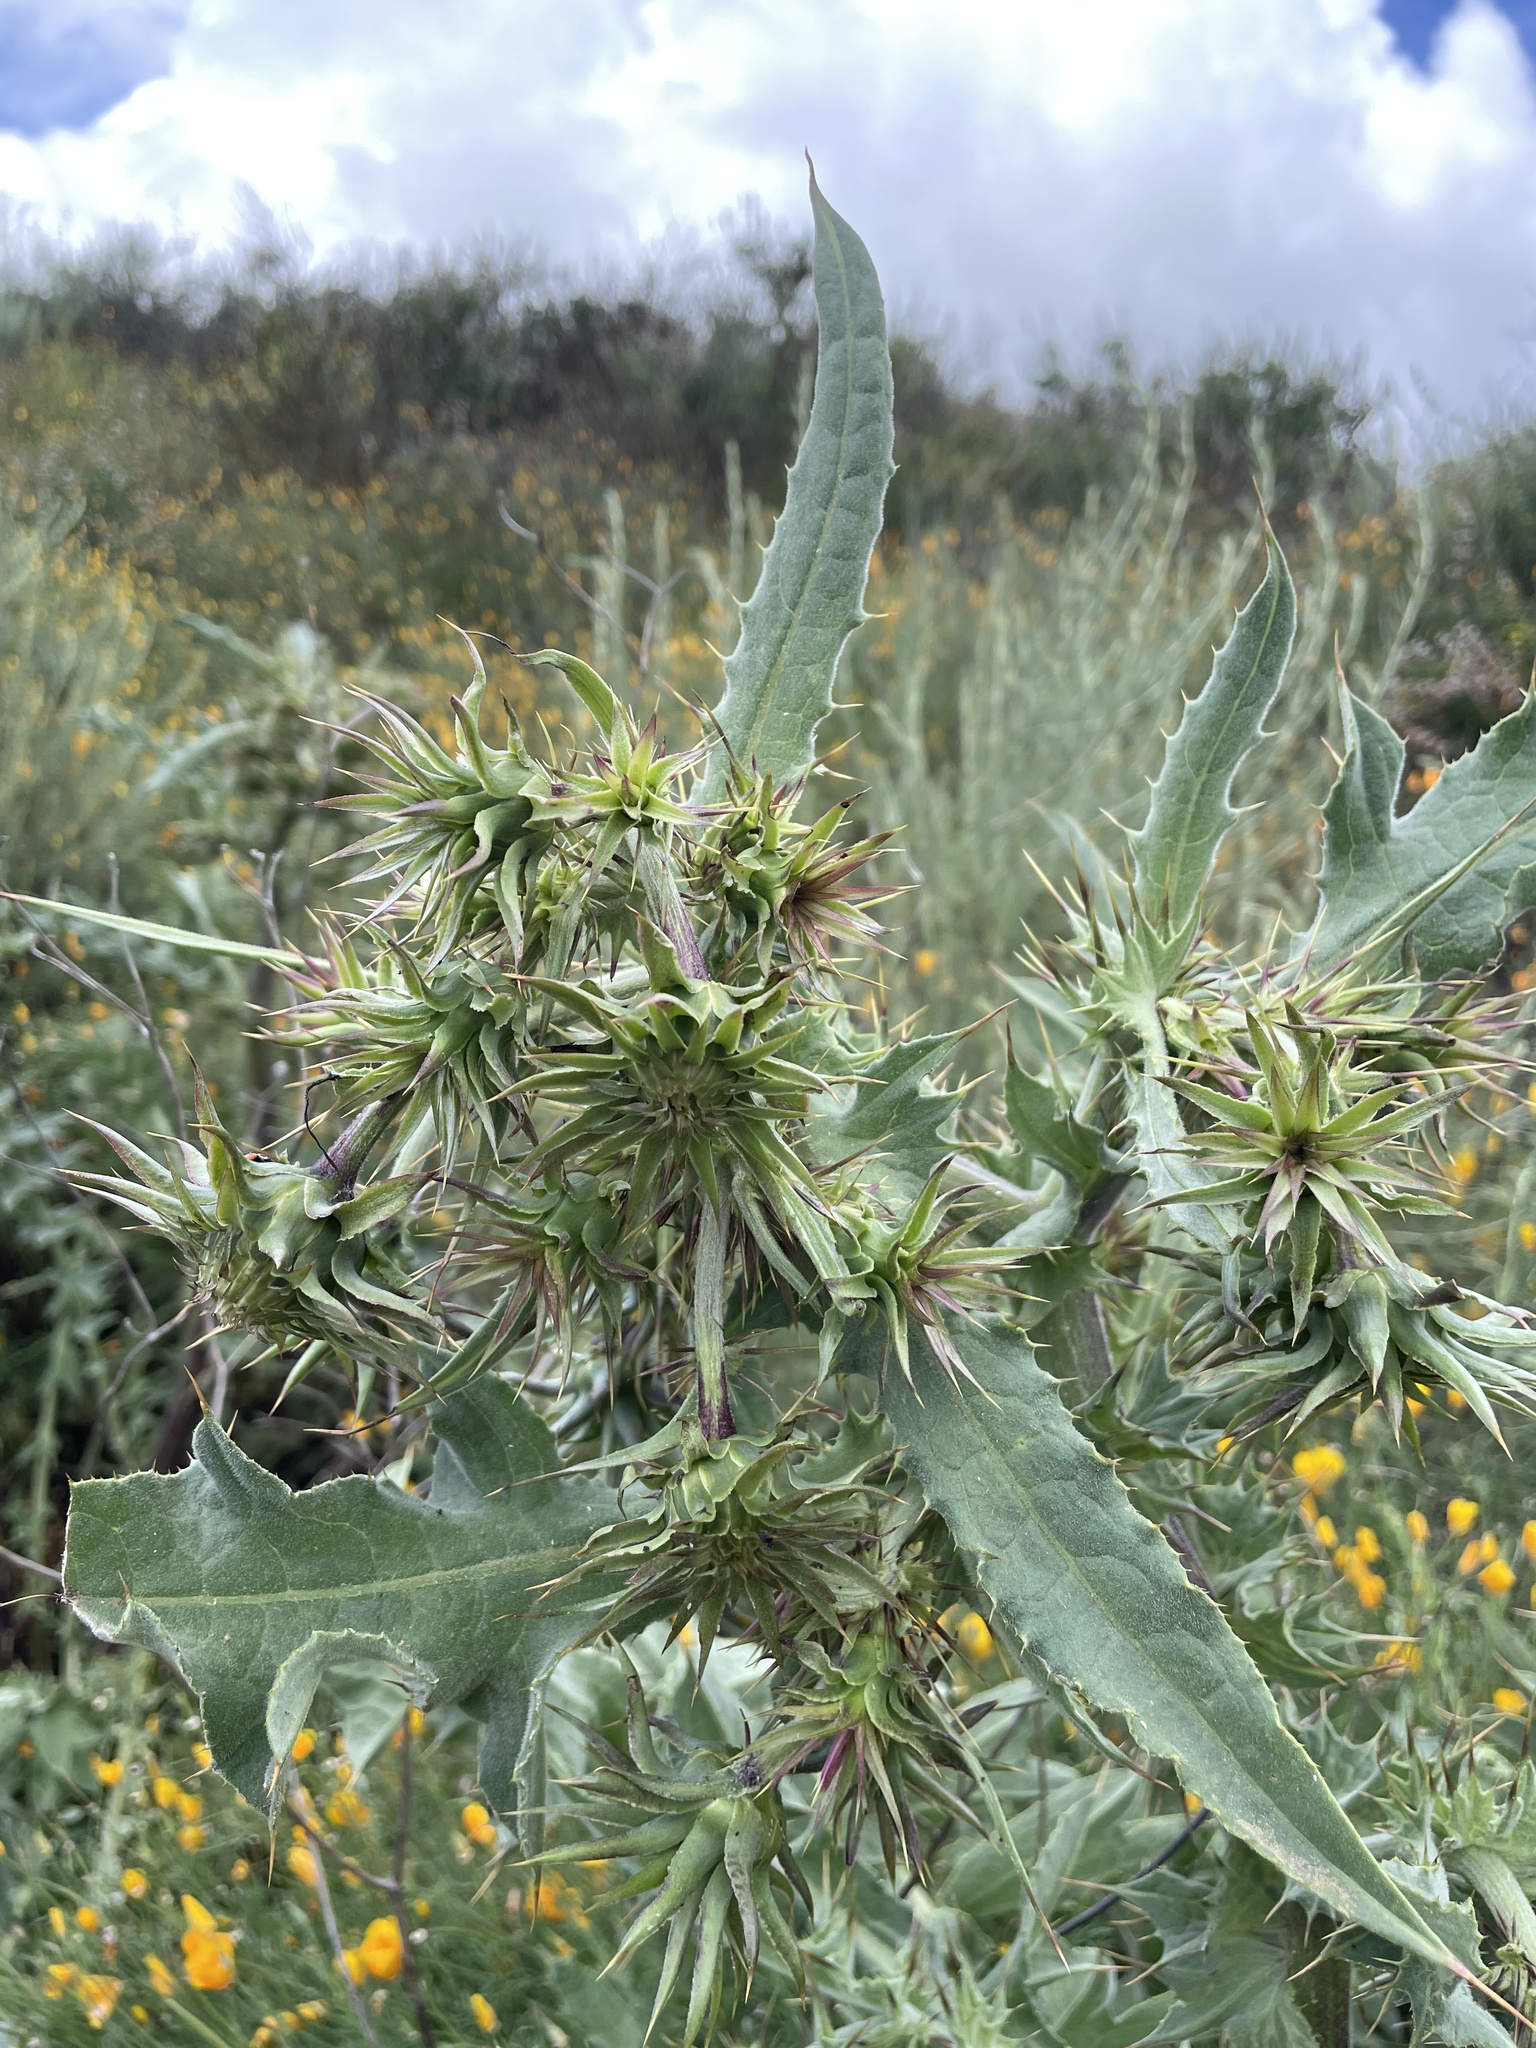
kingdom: Plantae
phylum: Tracheophyta
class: Magnoliopsida
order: Asterales
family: Asteraceae
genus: Cirsium
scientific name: Cirsium fontinale
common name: Fountain thistle
